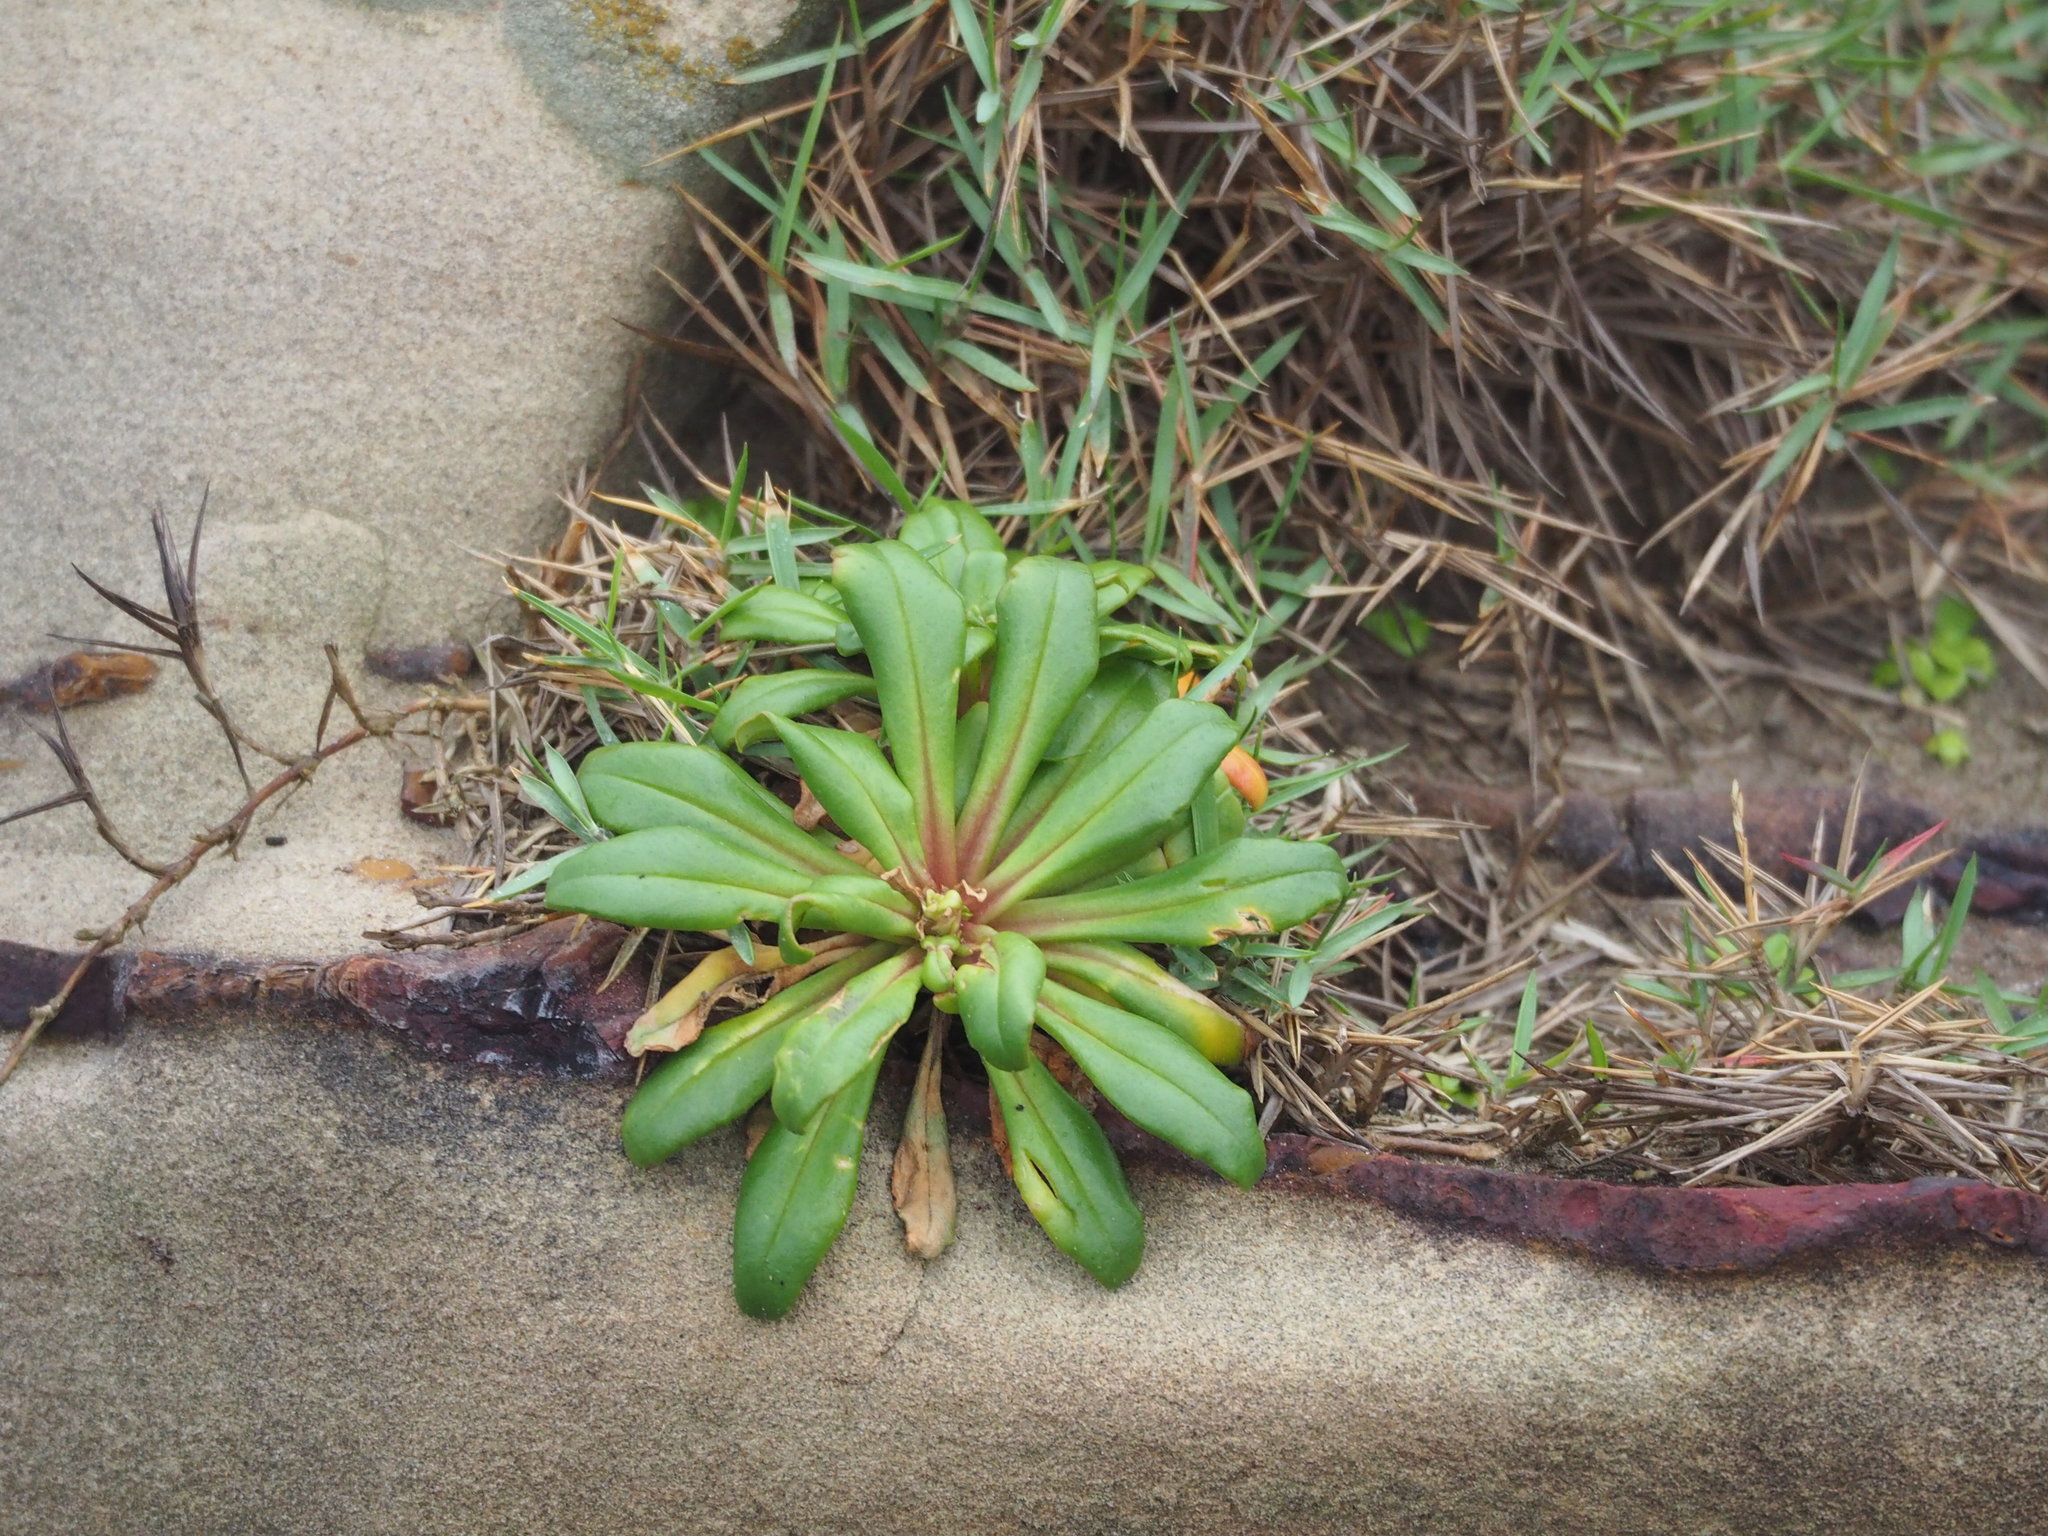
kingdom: Plantae
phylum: Tracheophyta
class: Magnoliopsida
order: Ericales
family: Primulaceae
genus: Lysimachia
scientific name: Lysimachia mauritiana
